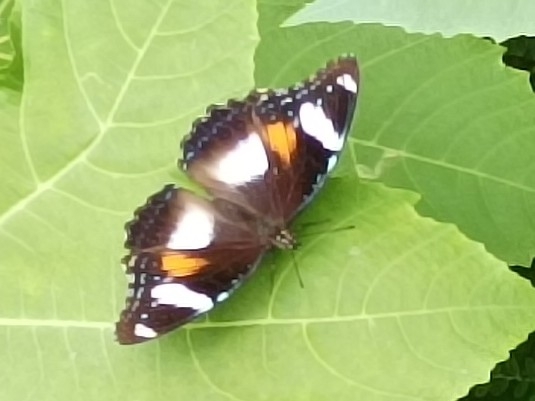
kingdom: Animalia
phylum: Arthropoda
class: Insecta
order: Lepidoptera
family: Nymphalidae
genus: Hypolimnas
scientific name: Hypolimnas bolina
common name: Great eggfly
